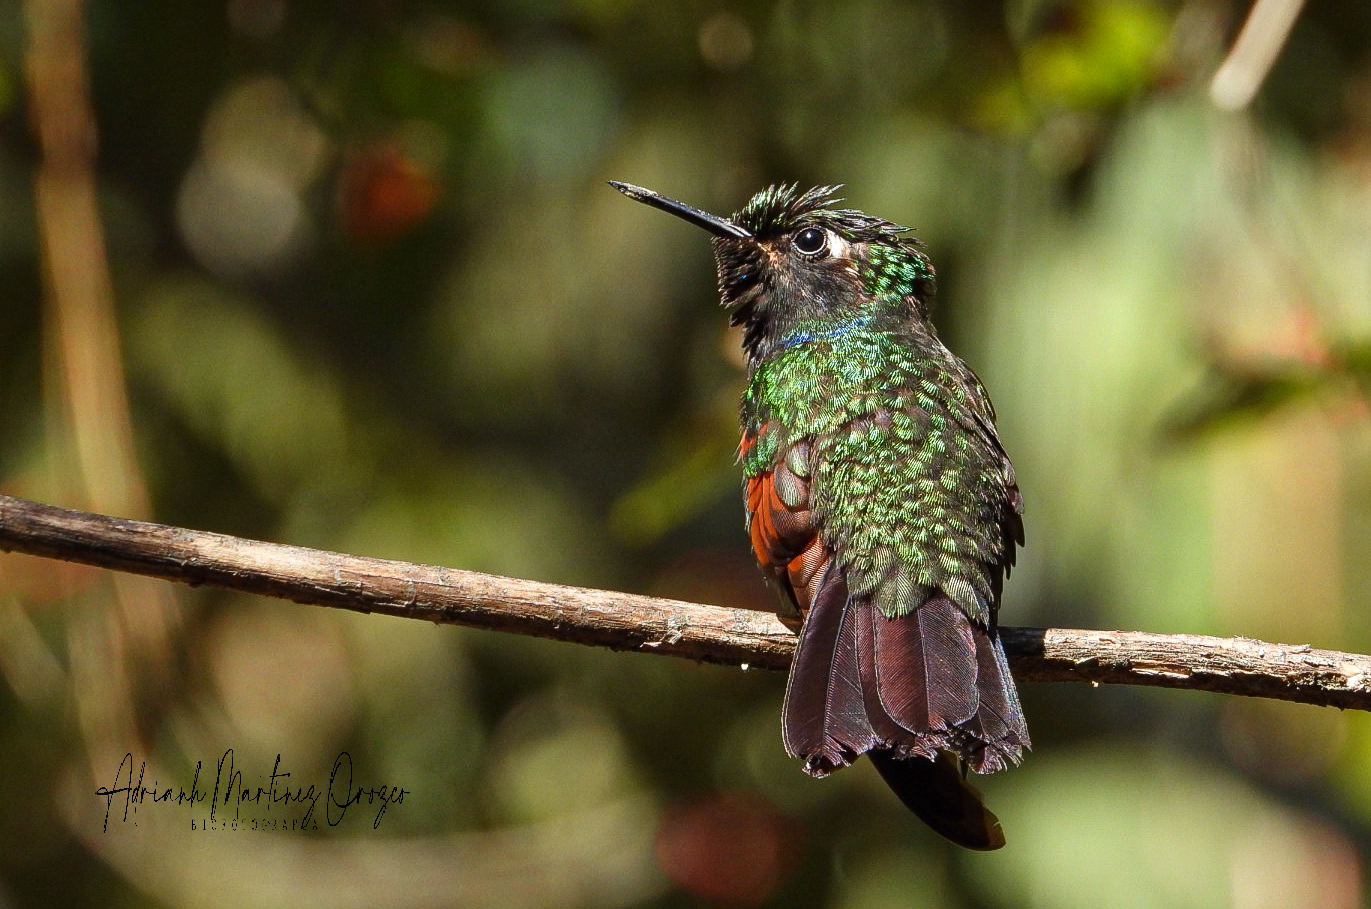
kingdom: Animalia
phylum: Chordata
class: Aves
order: Apodiformes
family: Trochilidae
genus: Lamprolaima
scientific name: Lamprolaima rhami
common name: Garnet-throated hummingbird
